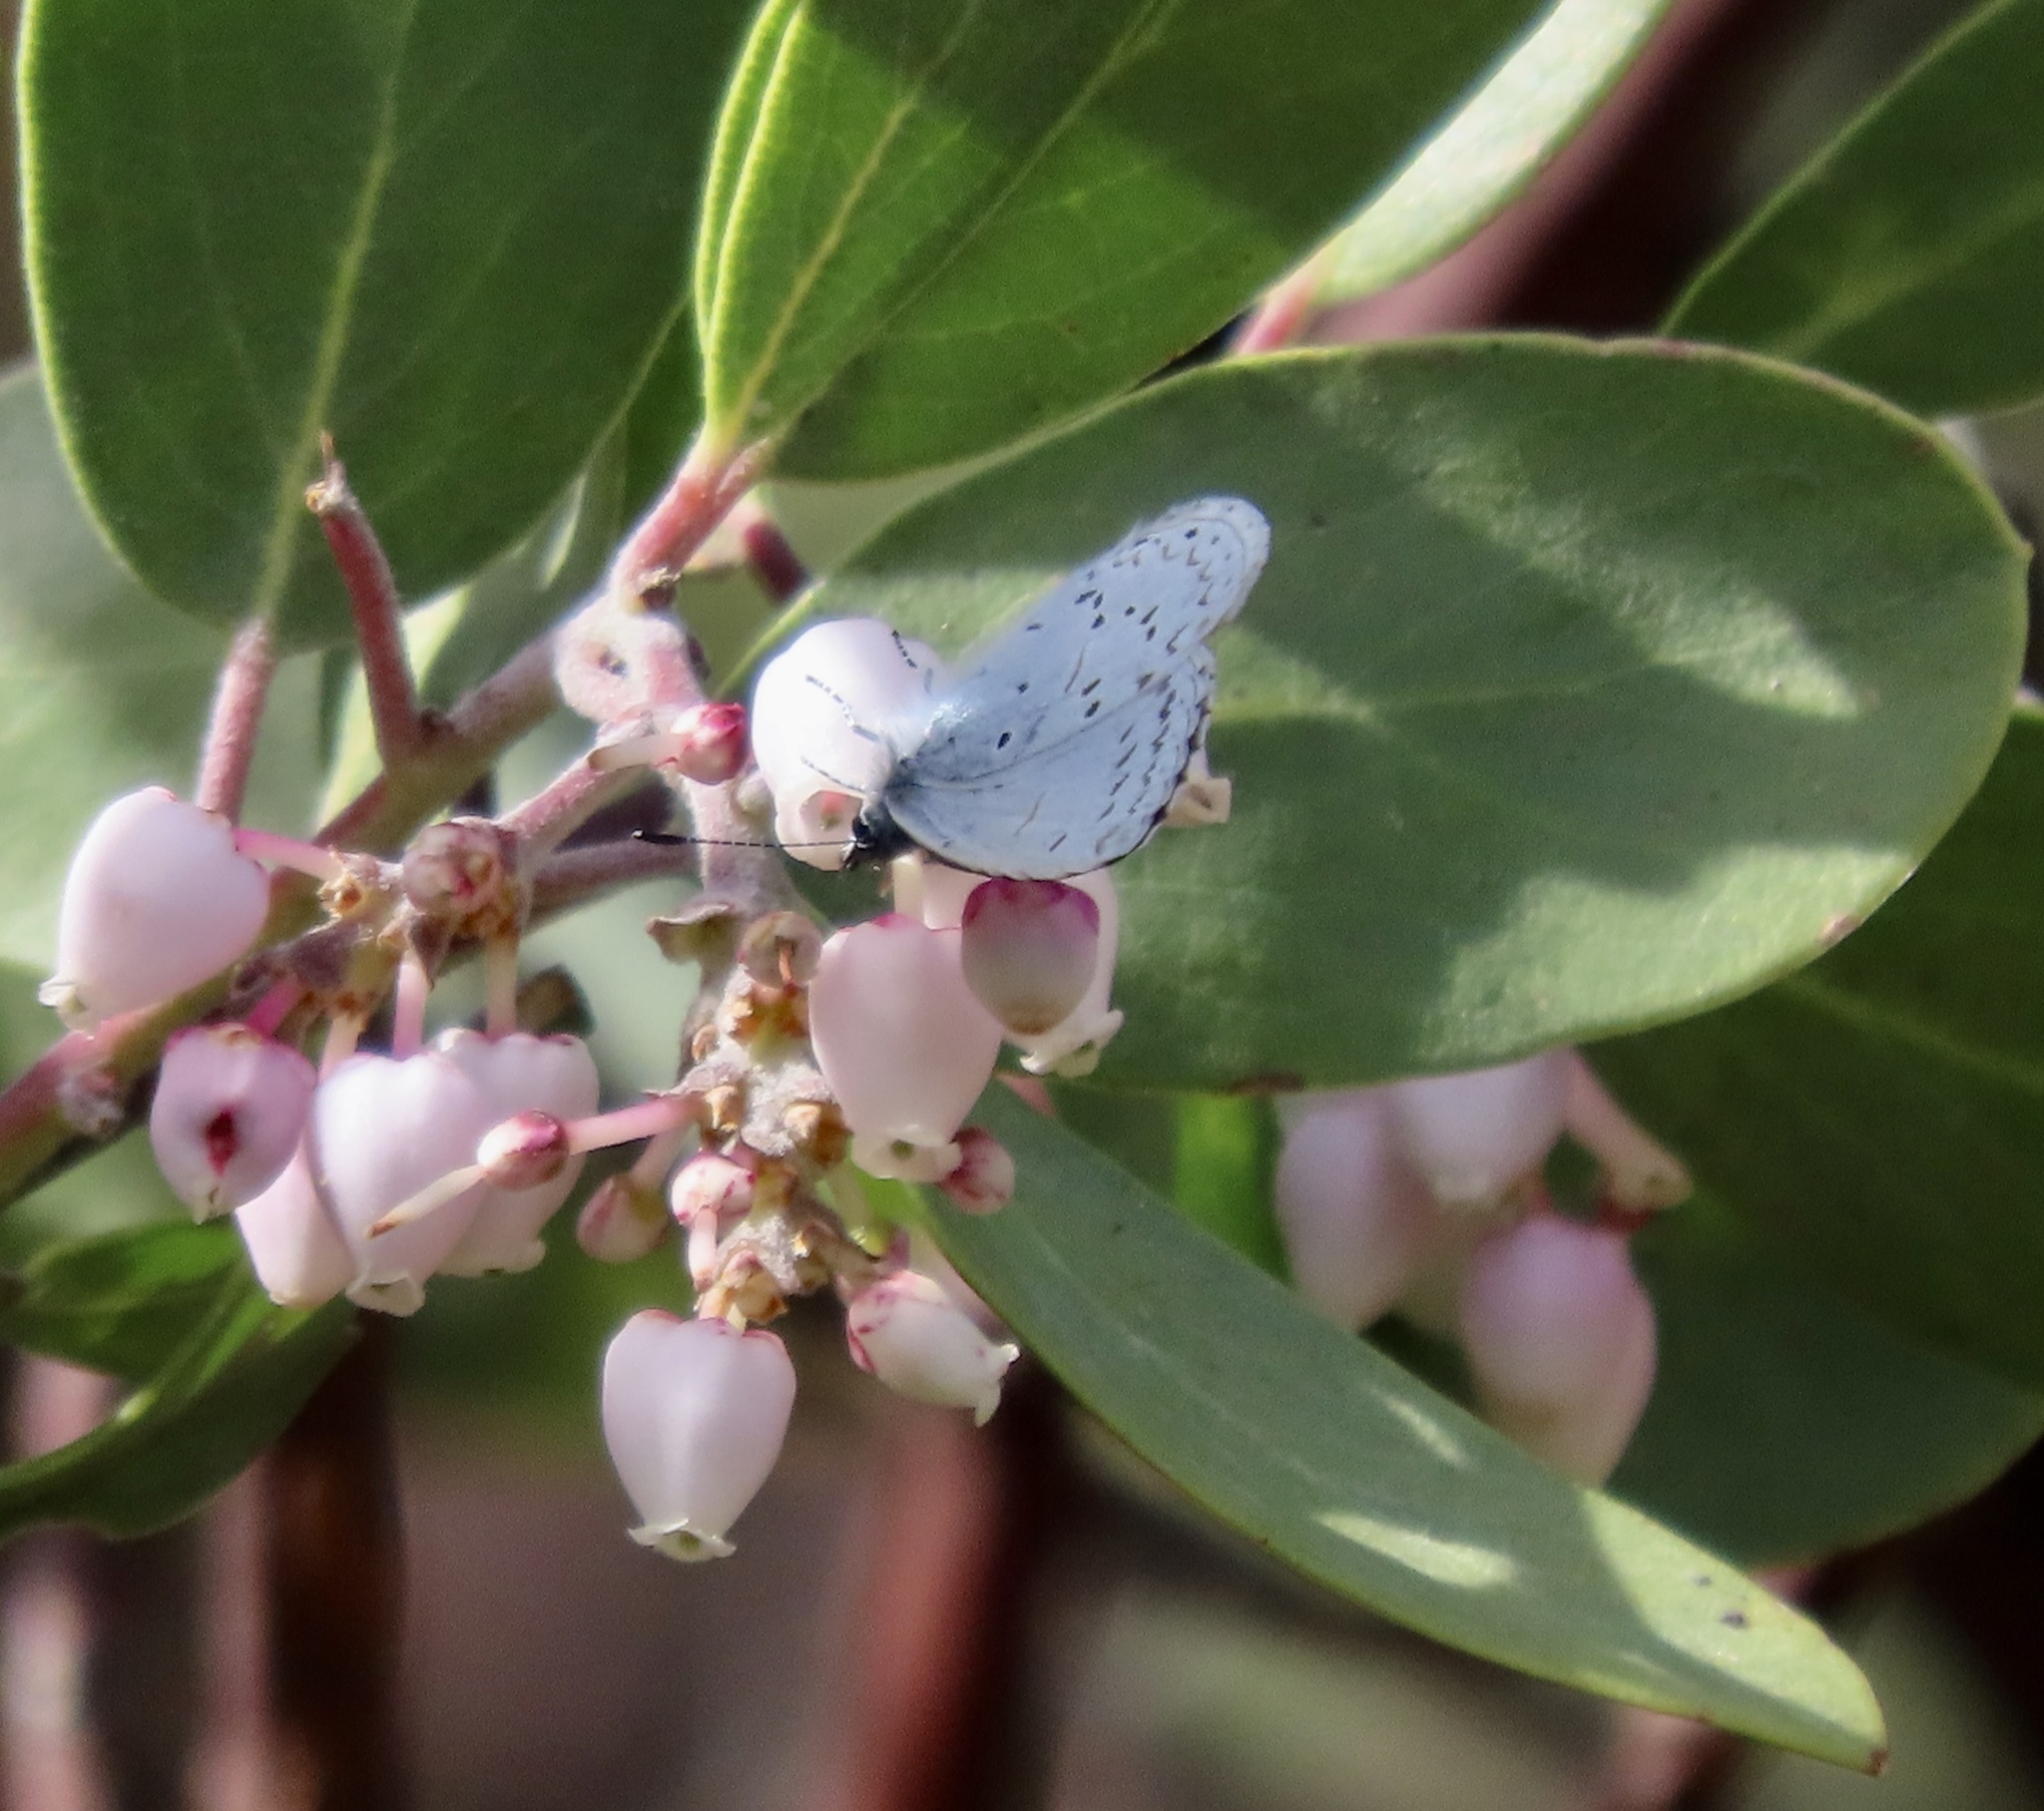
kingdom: Animalia
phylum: Arthropoda
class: Insecta
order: Lepidoptera
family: Lycaenidae
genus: Celastrina
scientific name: Celastrina ladon
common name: Spring azure
